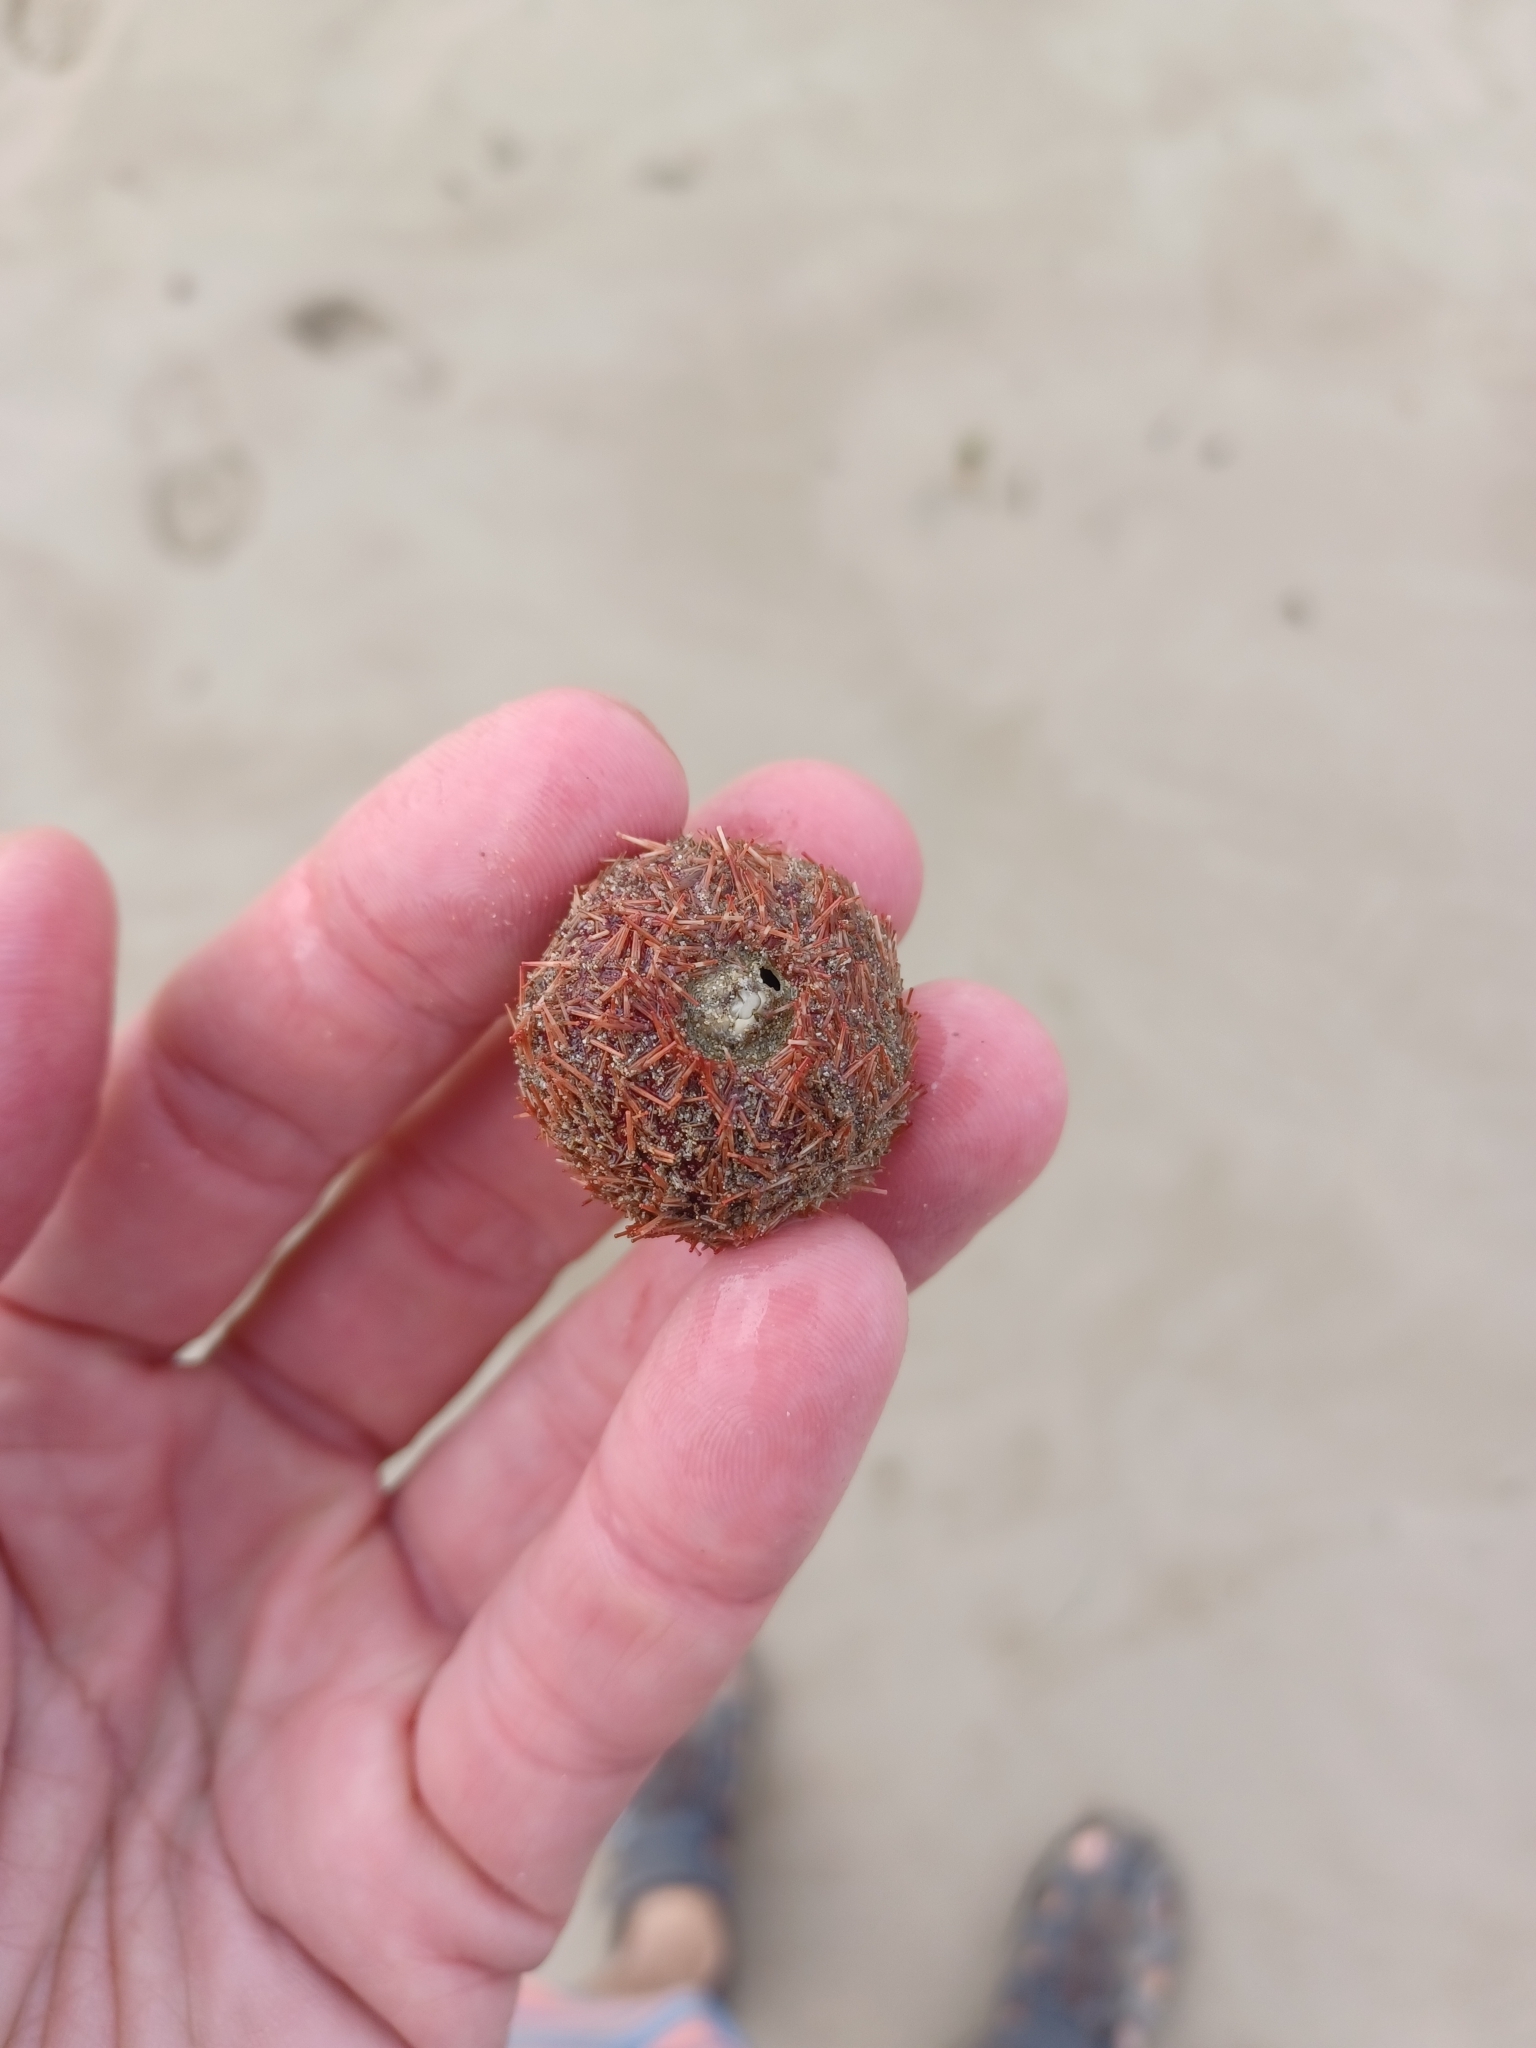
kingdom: Animalia
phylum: Echinodermata
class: Echinoidea
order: Camarodonta
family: Temnopleuridae
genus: Holopneustes
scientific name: Holopneustes inflatus
